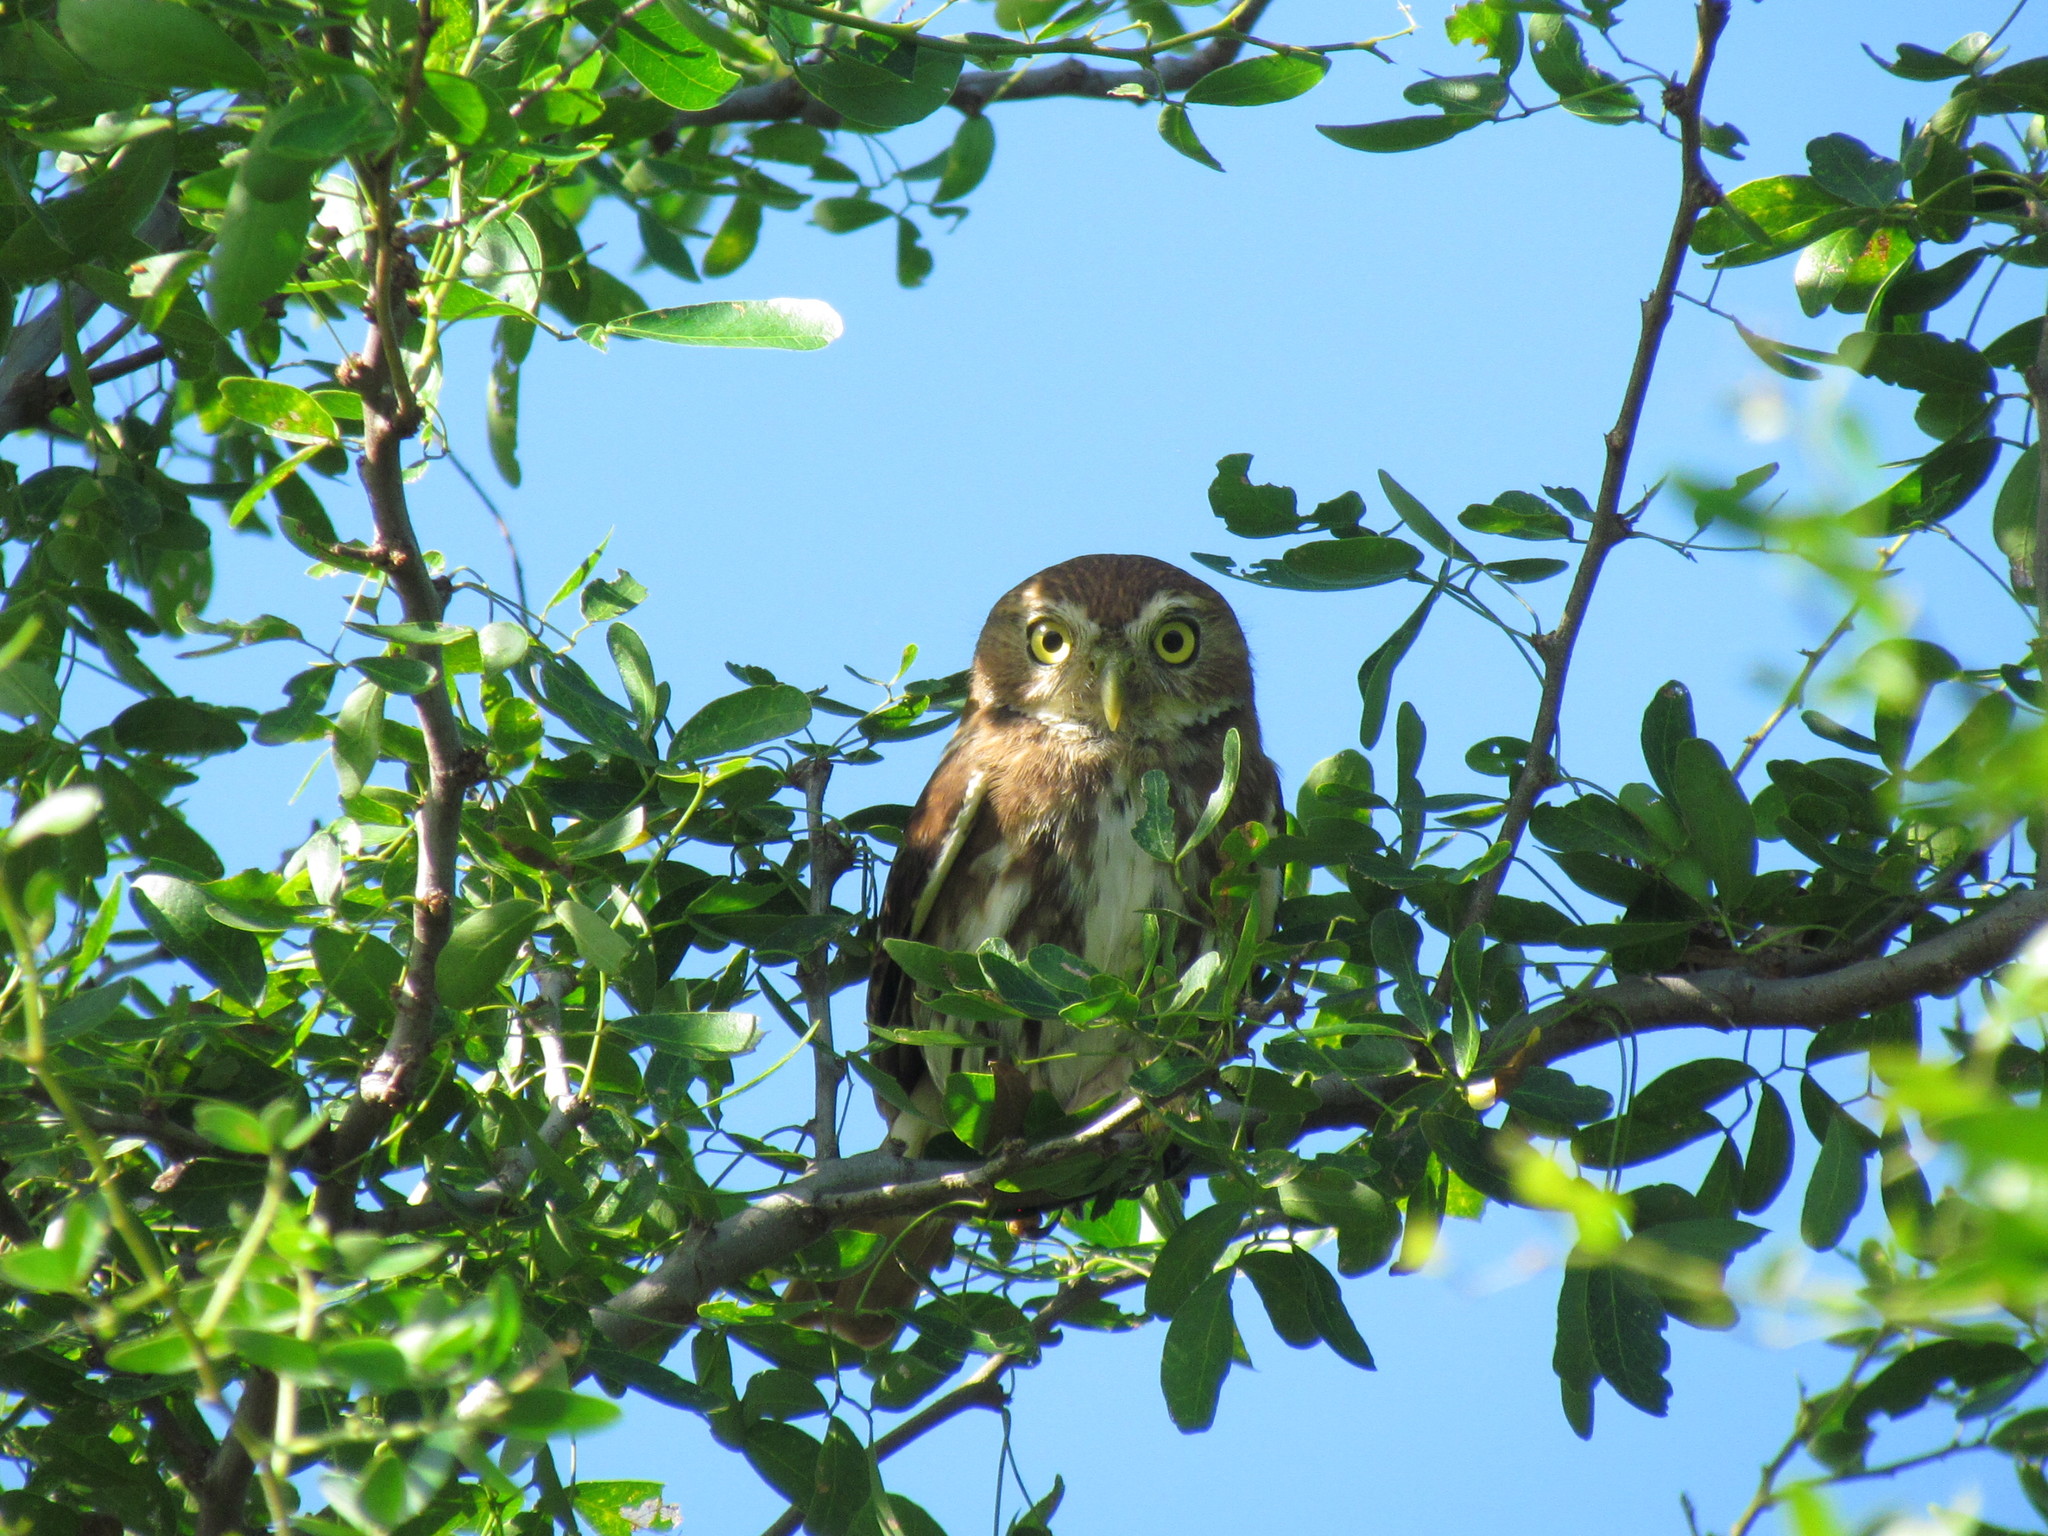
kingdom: Animalia
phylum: Chordata
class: Aves
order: Strigiformes
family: Strigidae
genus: Glaucidium
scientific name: Glaucidium brasilianum
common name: Ferruginous pygmy-owl
